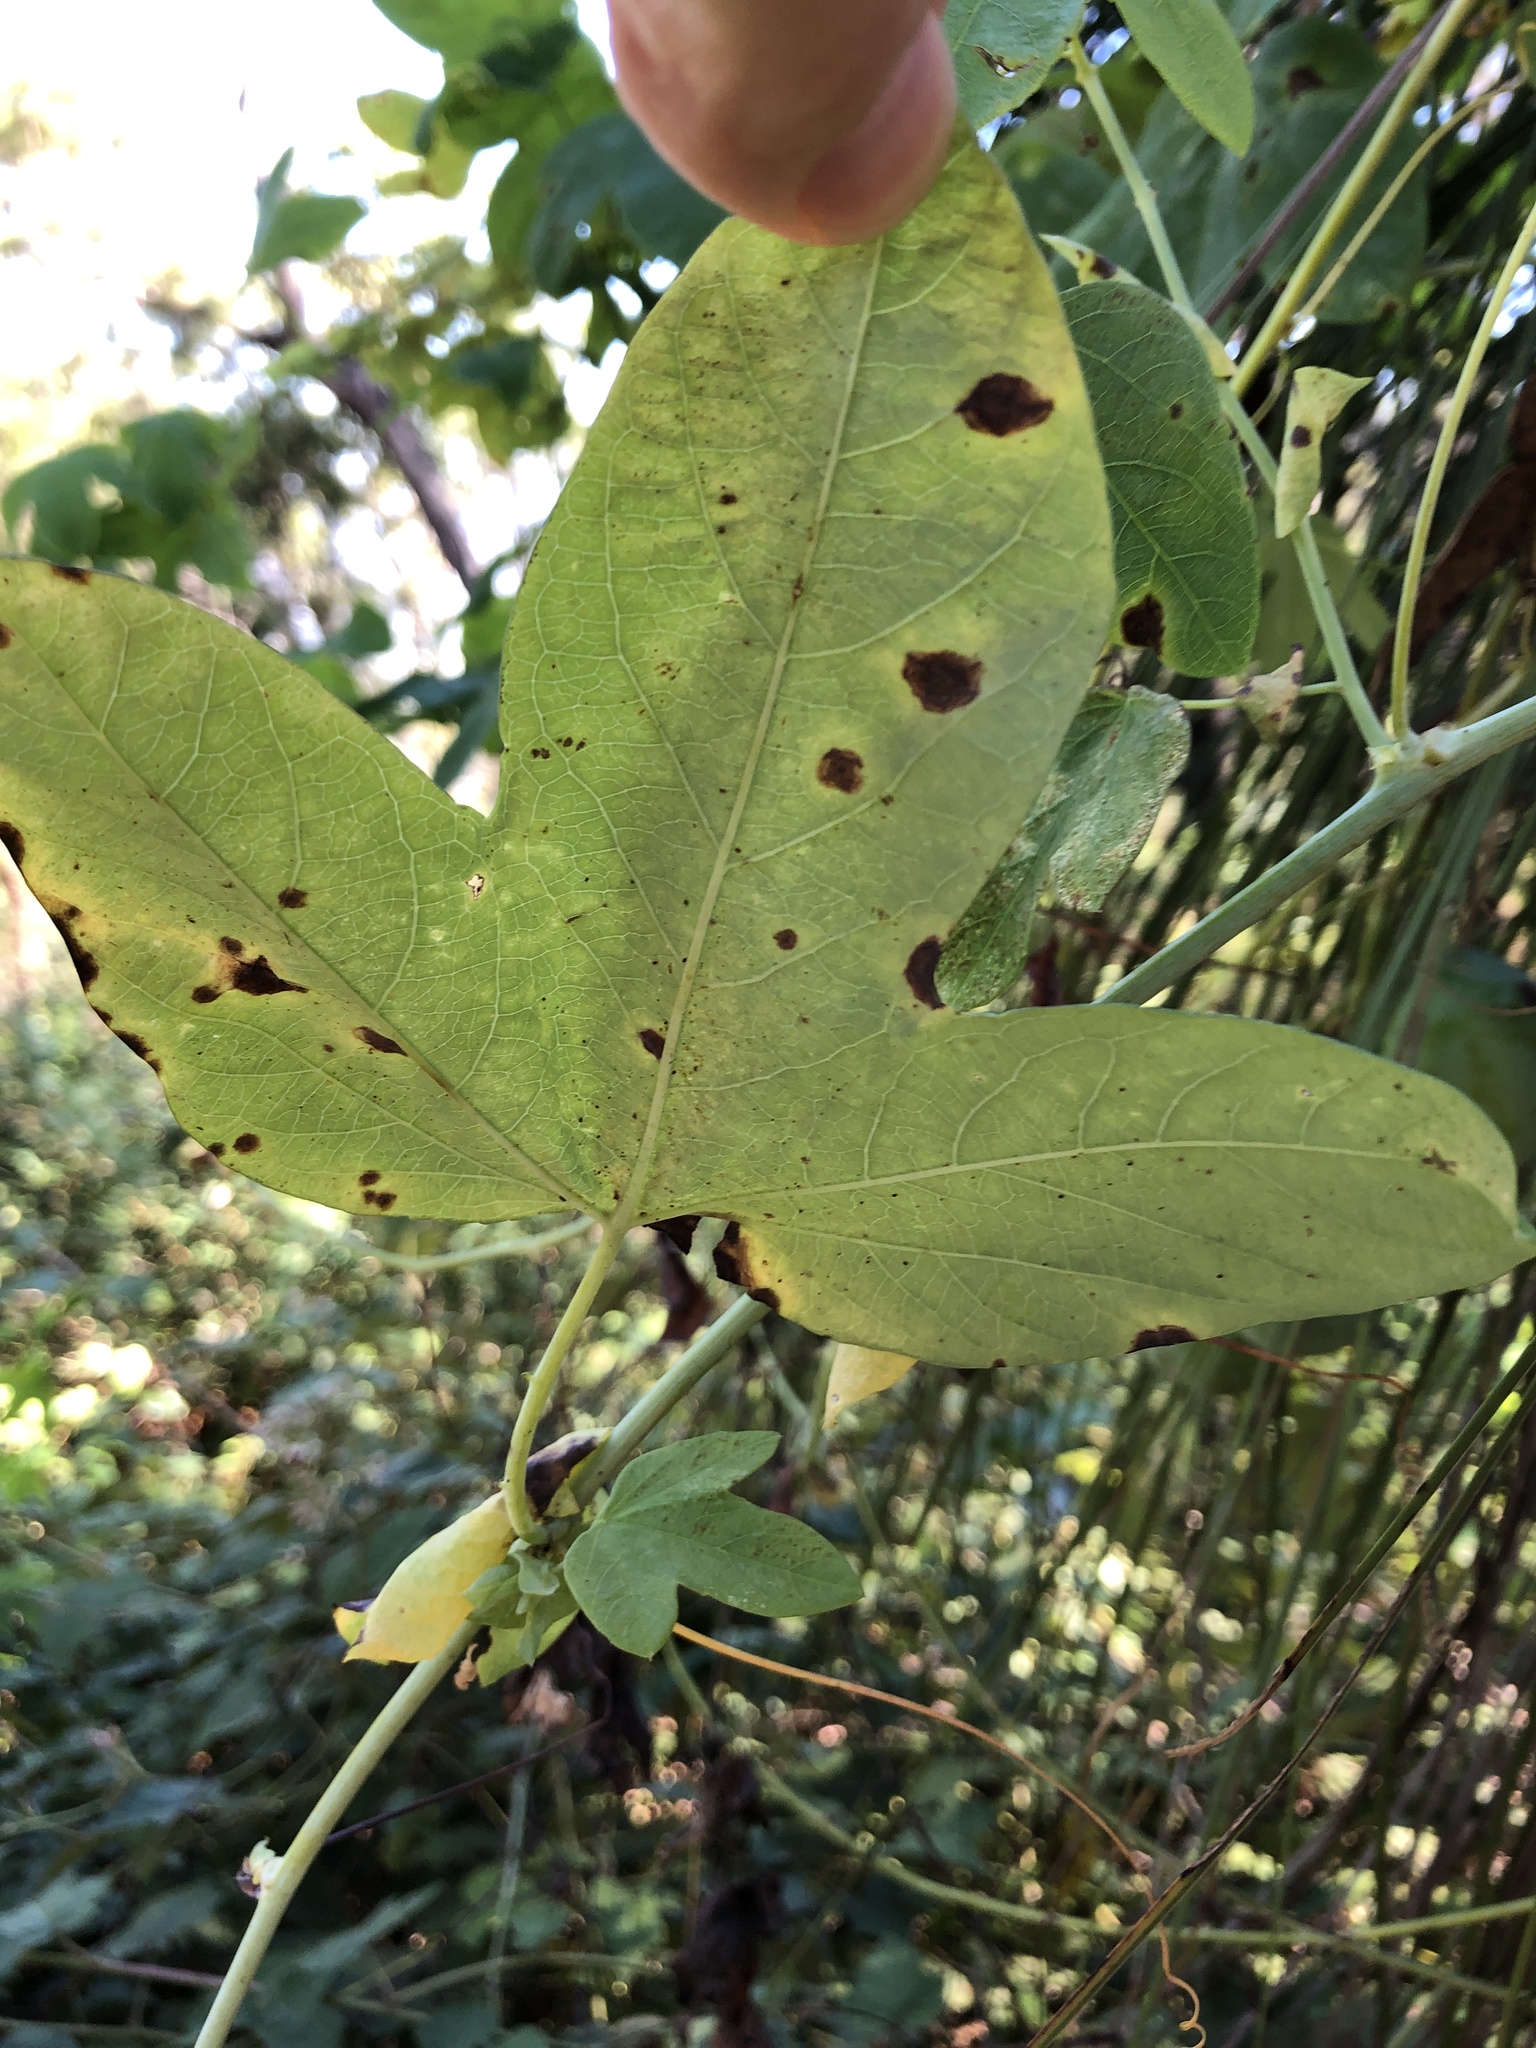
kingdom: Plantae
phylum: Tracheophyta
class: Magnoliopsida
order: Malpighiales
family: Passifloraceae
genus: Passiflora
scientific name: Passiflora subpeltata
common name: White passionflower
